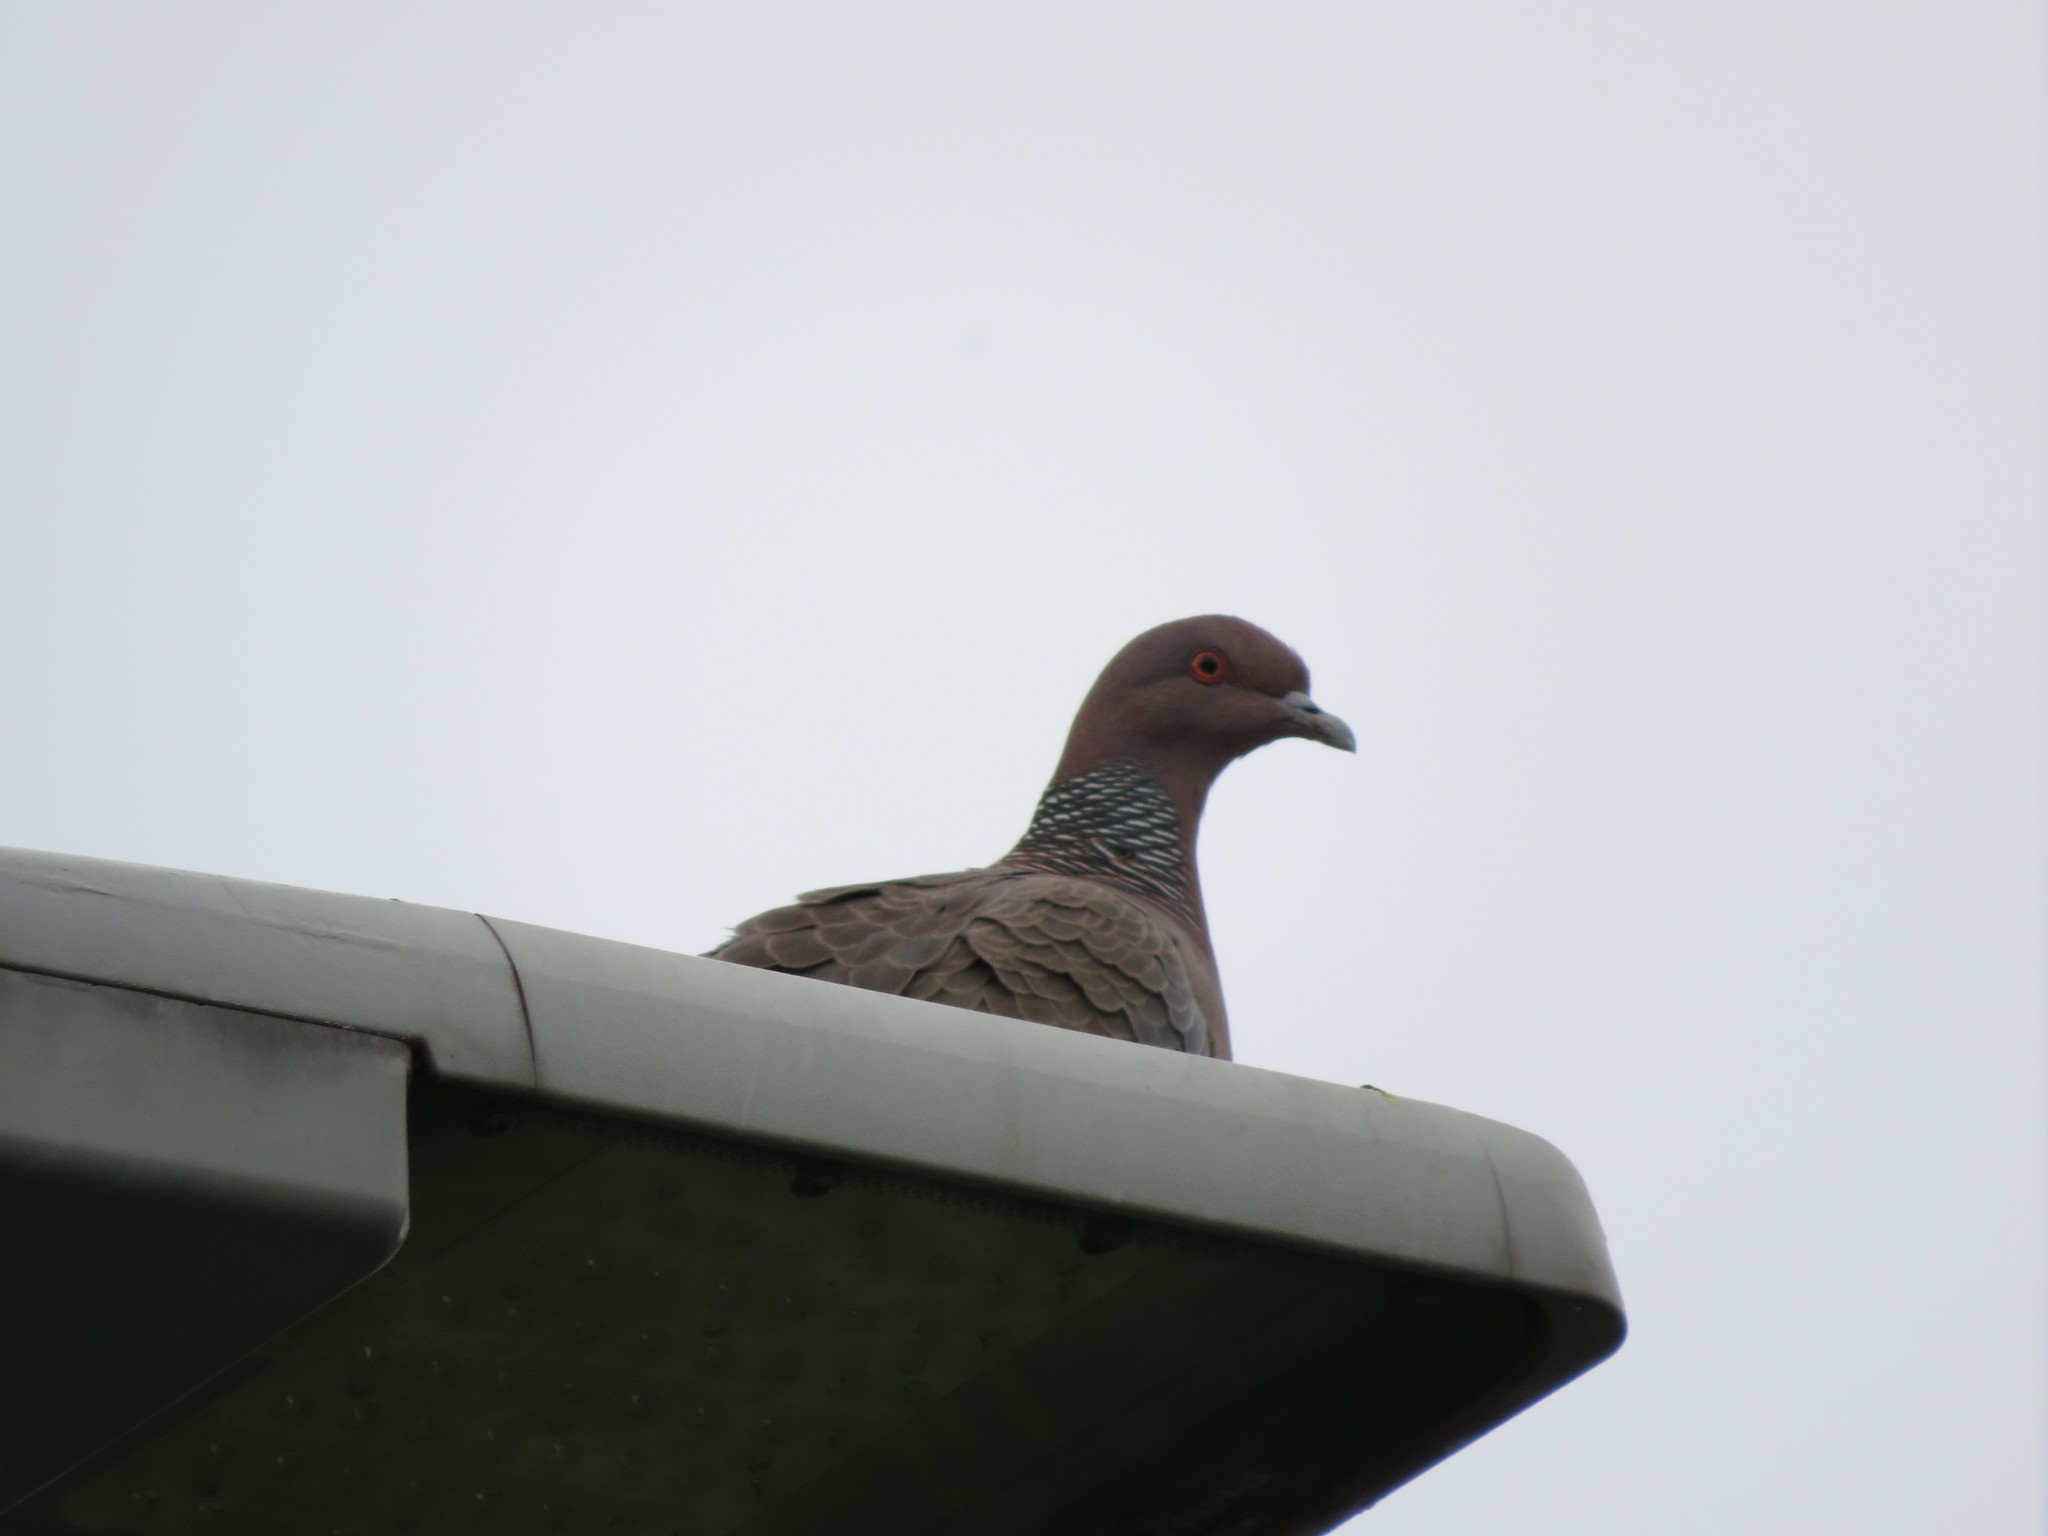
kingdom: Animalia
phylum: Chordata
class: Aves
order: Columbiformes
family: Columbidae
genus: Patagioenas
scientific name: Patagioenas picazuro
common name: Picazuro pigeon
